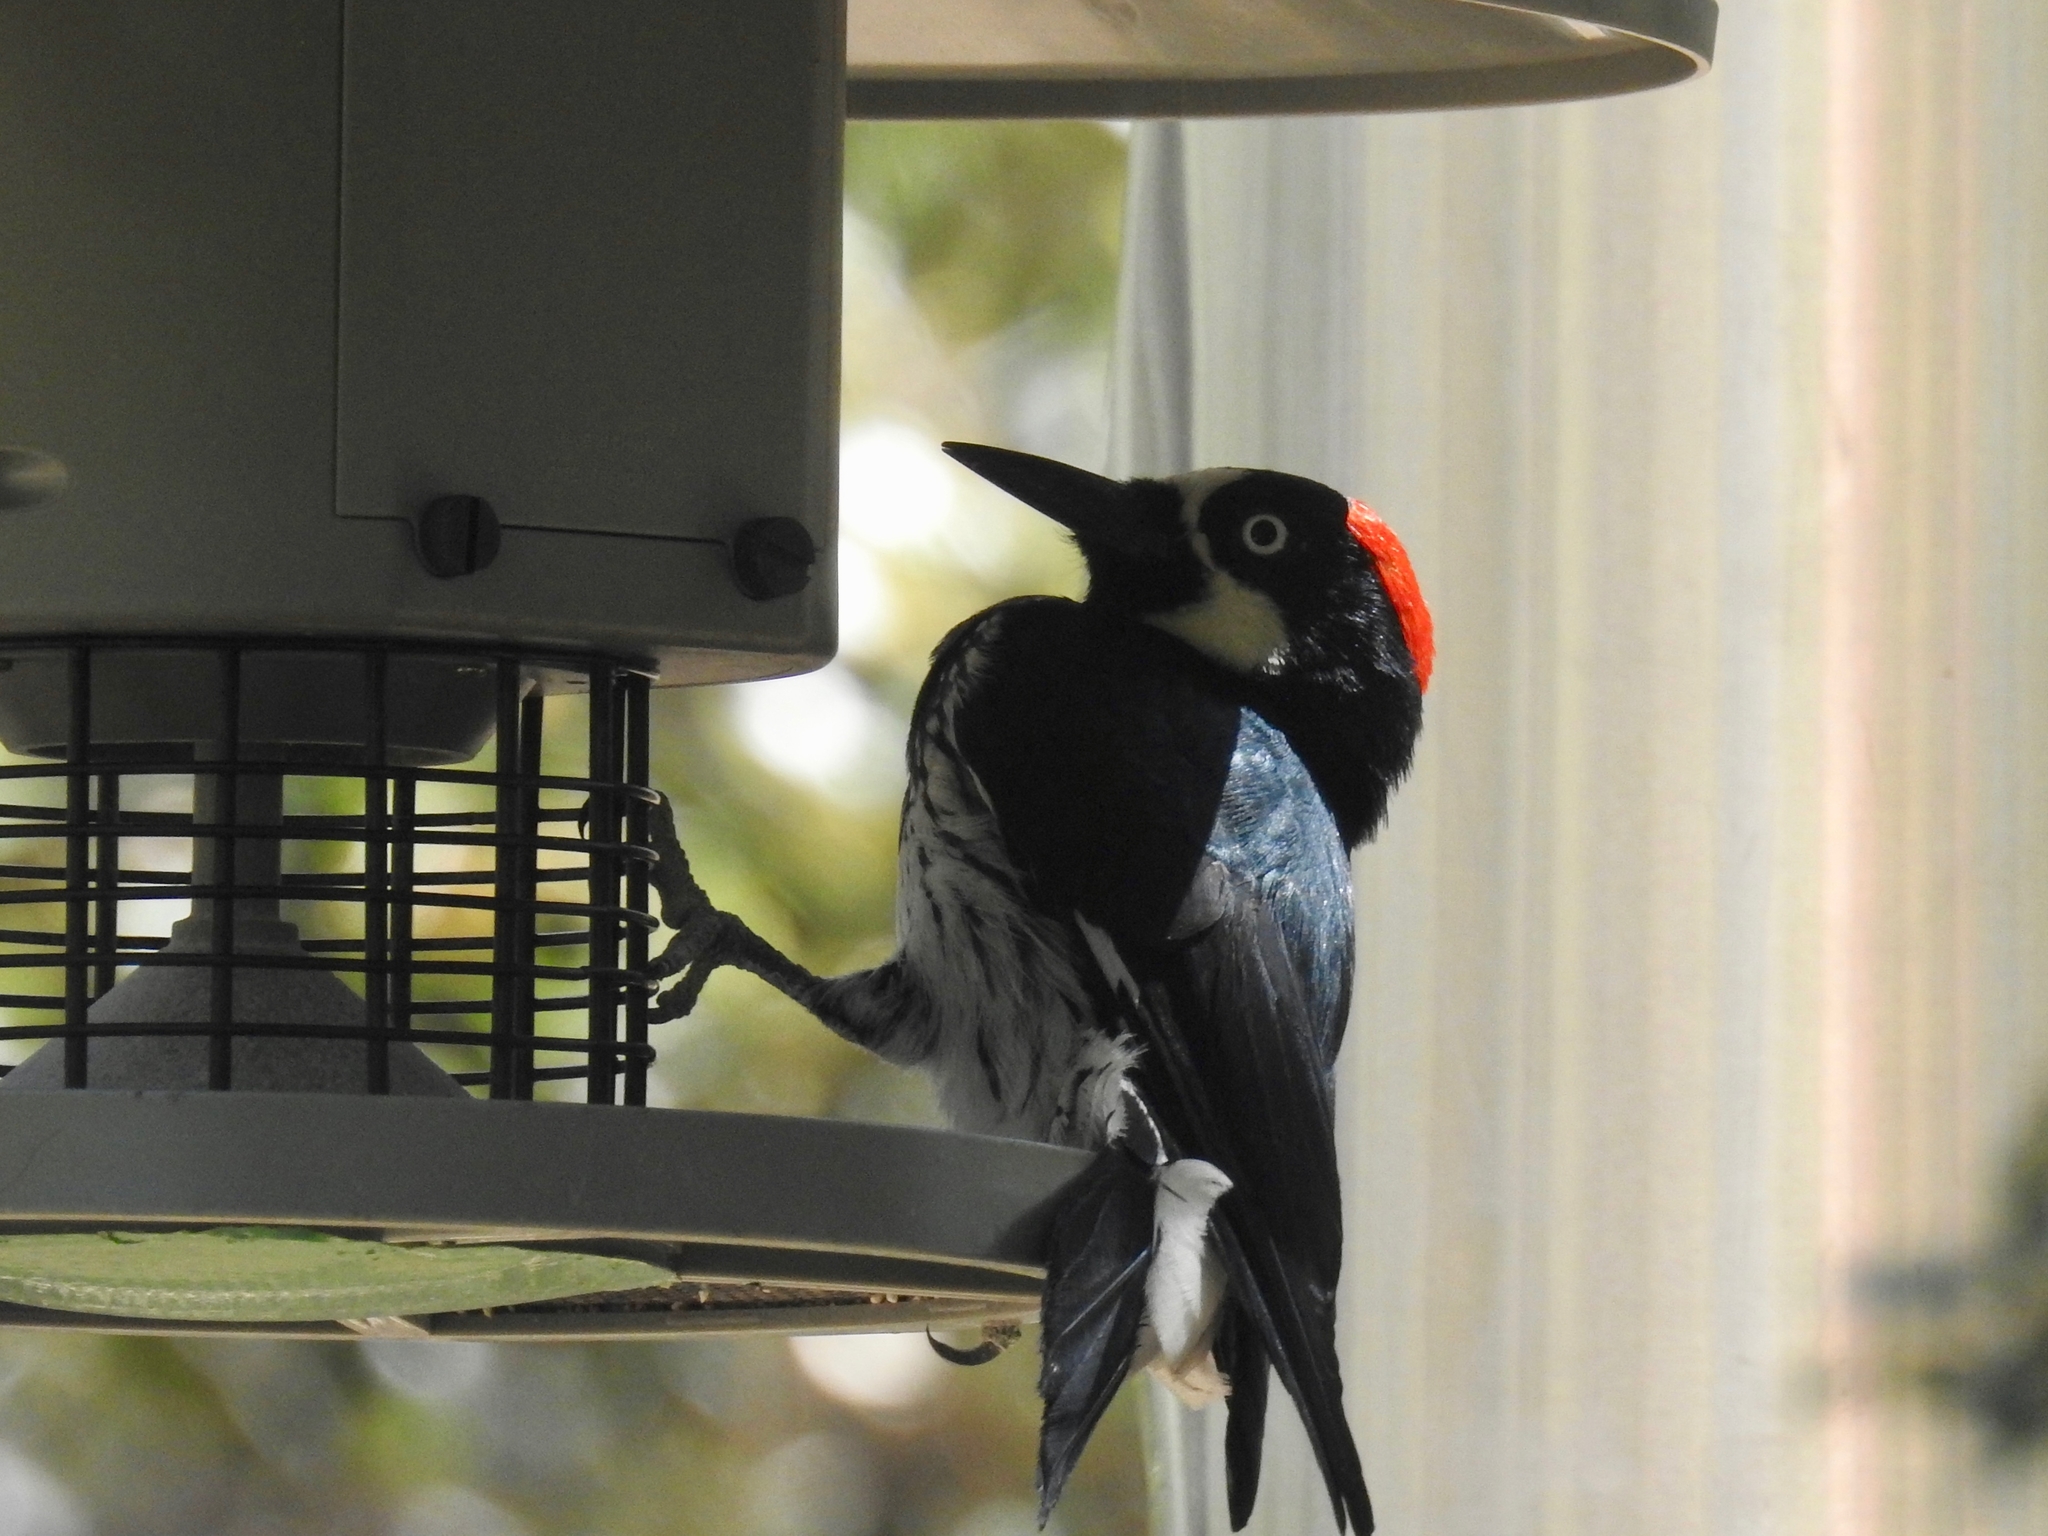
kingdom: Animalia
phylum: Chordata
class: Aves
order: Piciformes
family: Picidae
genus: Melanerpes
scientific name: Melanerpes formicivorus
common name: Acorn woodpecker
